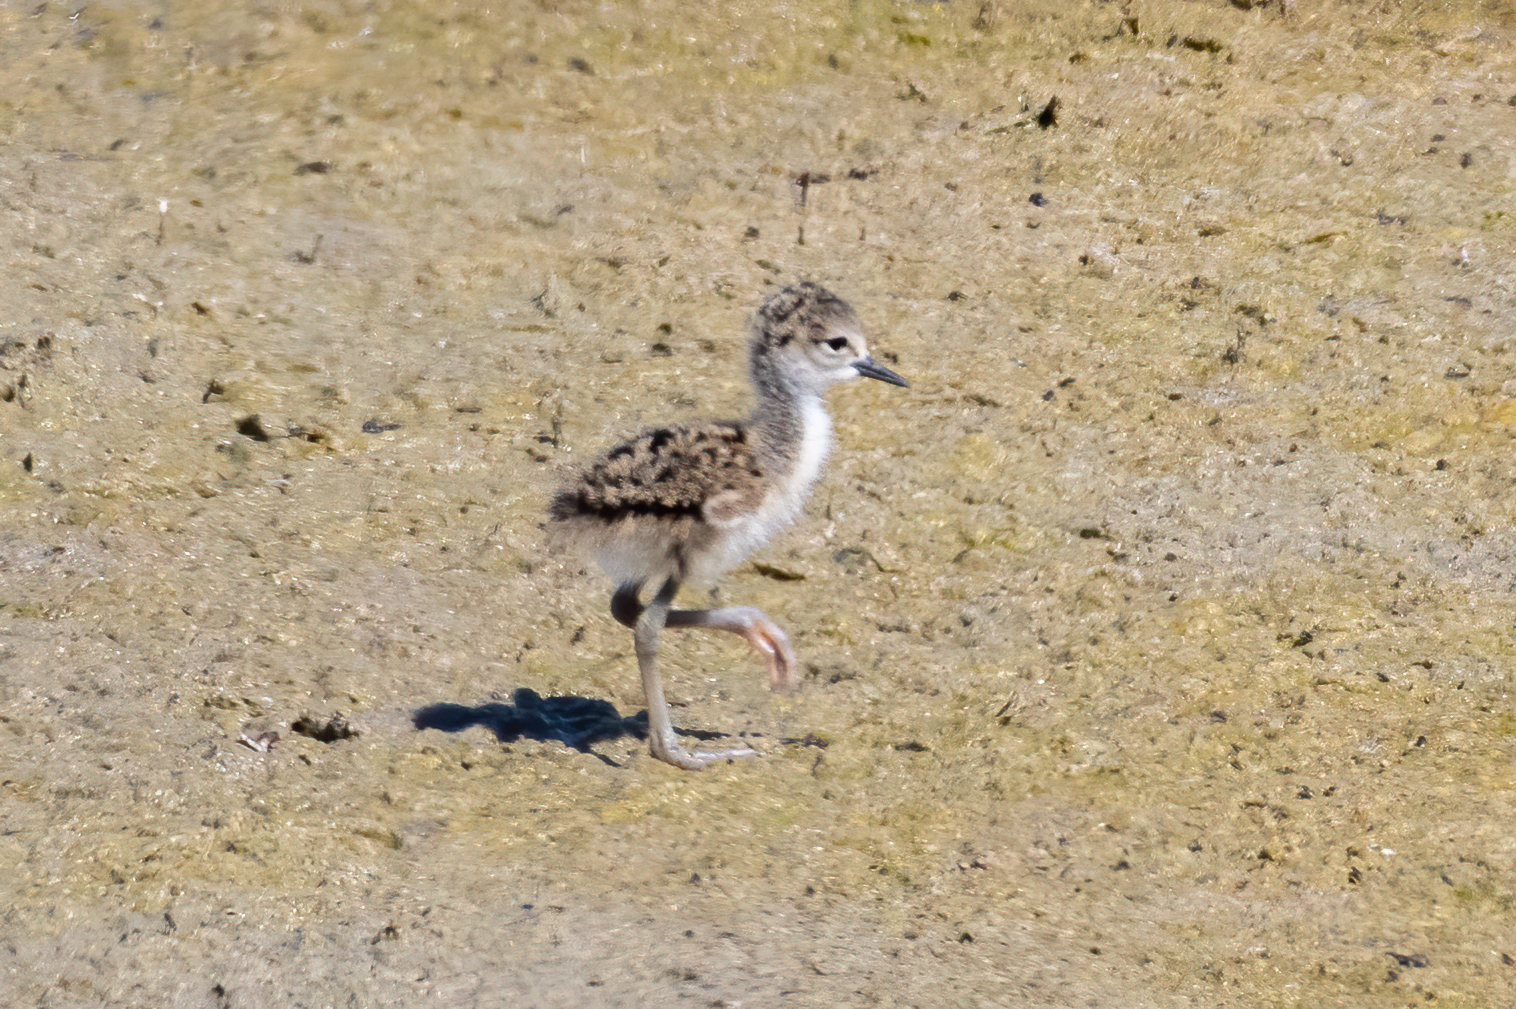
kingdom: Animalia
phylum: Chordata
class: Aves
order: Charadriiformes
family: Recurvirostridae
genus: Himantopus
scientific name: Himantopus mexicanus
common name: Black-necked stilt
